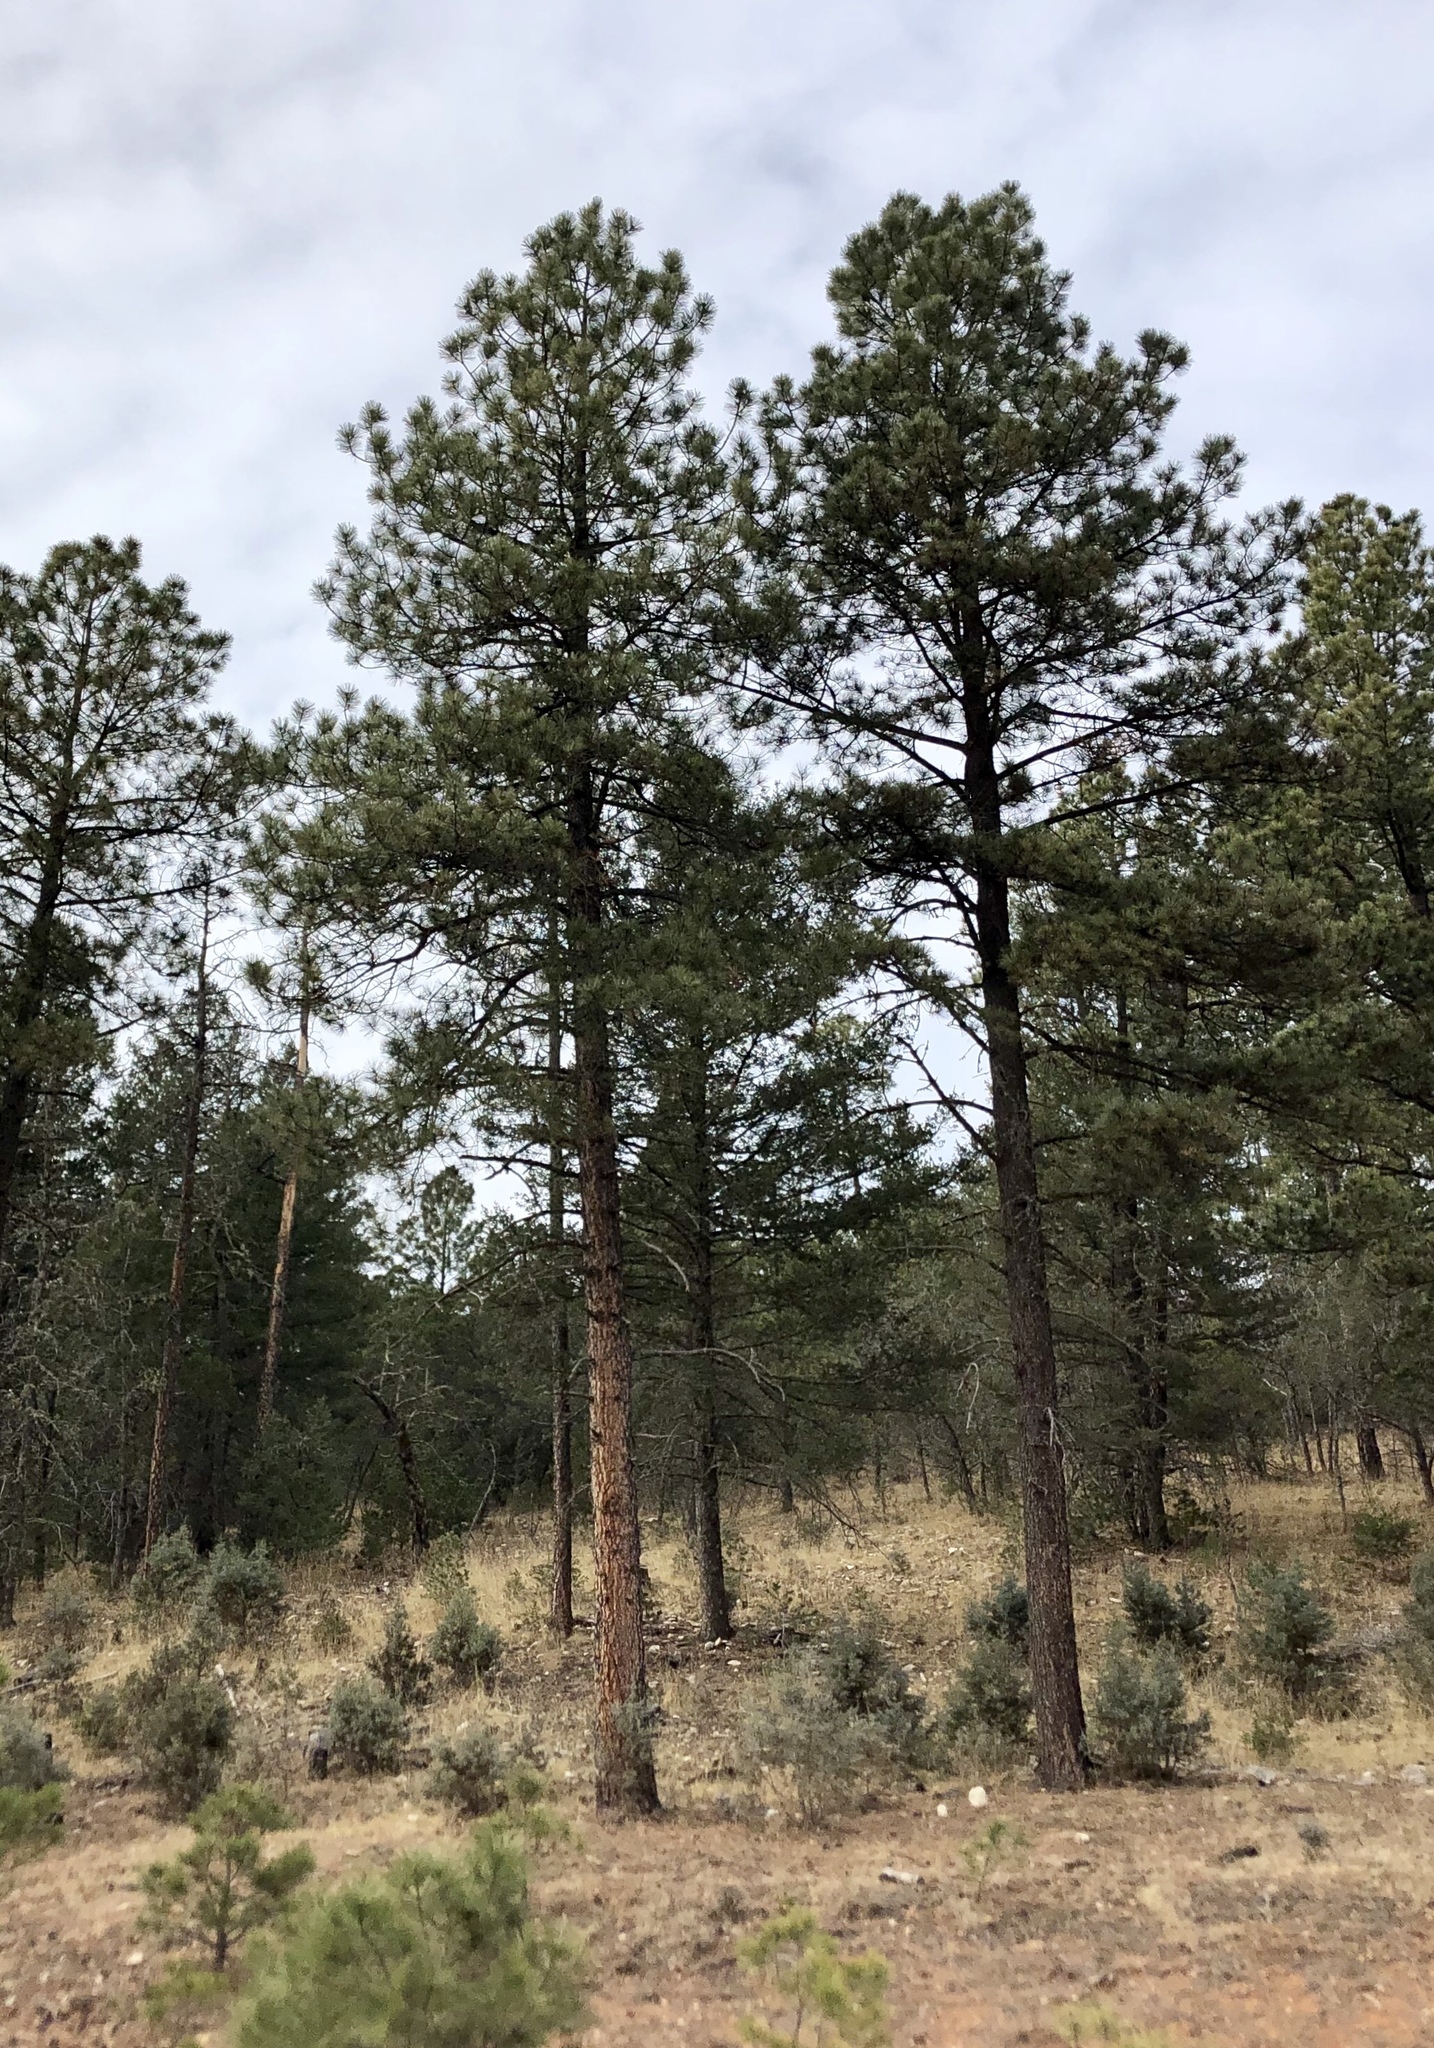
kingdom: Plantae
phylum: Tracheophyta
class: Pinopsida
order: Pinales
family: Pinaceae
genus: Pinus
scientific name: Pinus ponderosa
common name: Western yellow-pine
